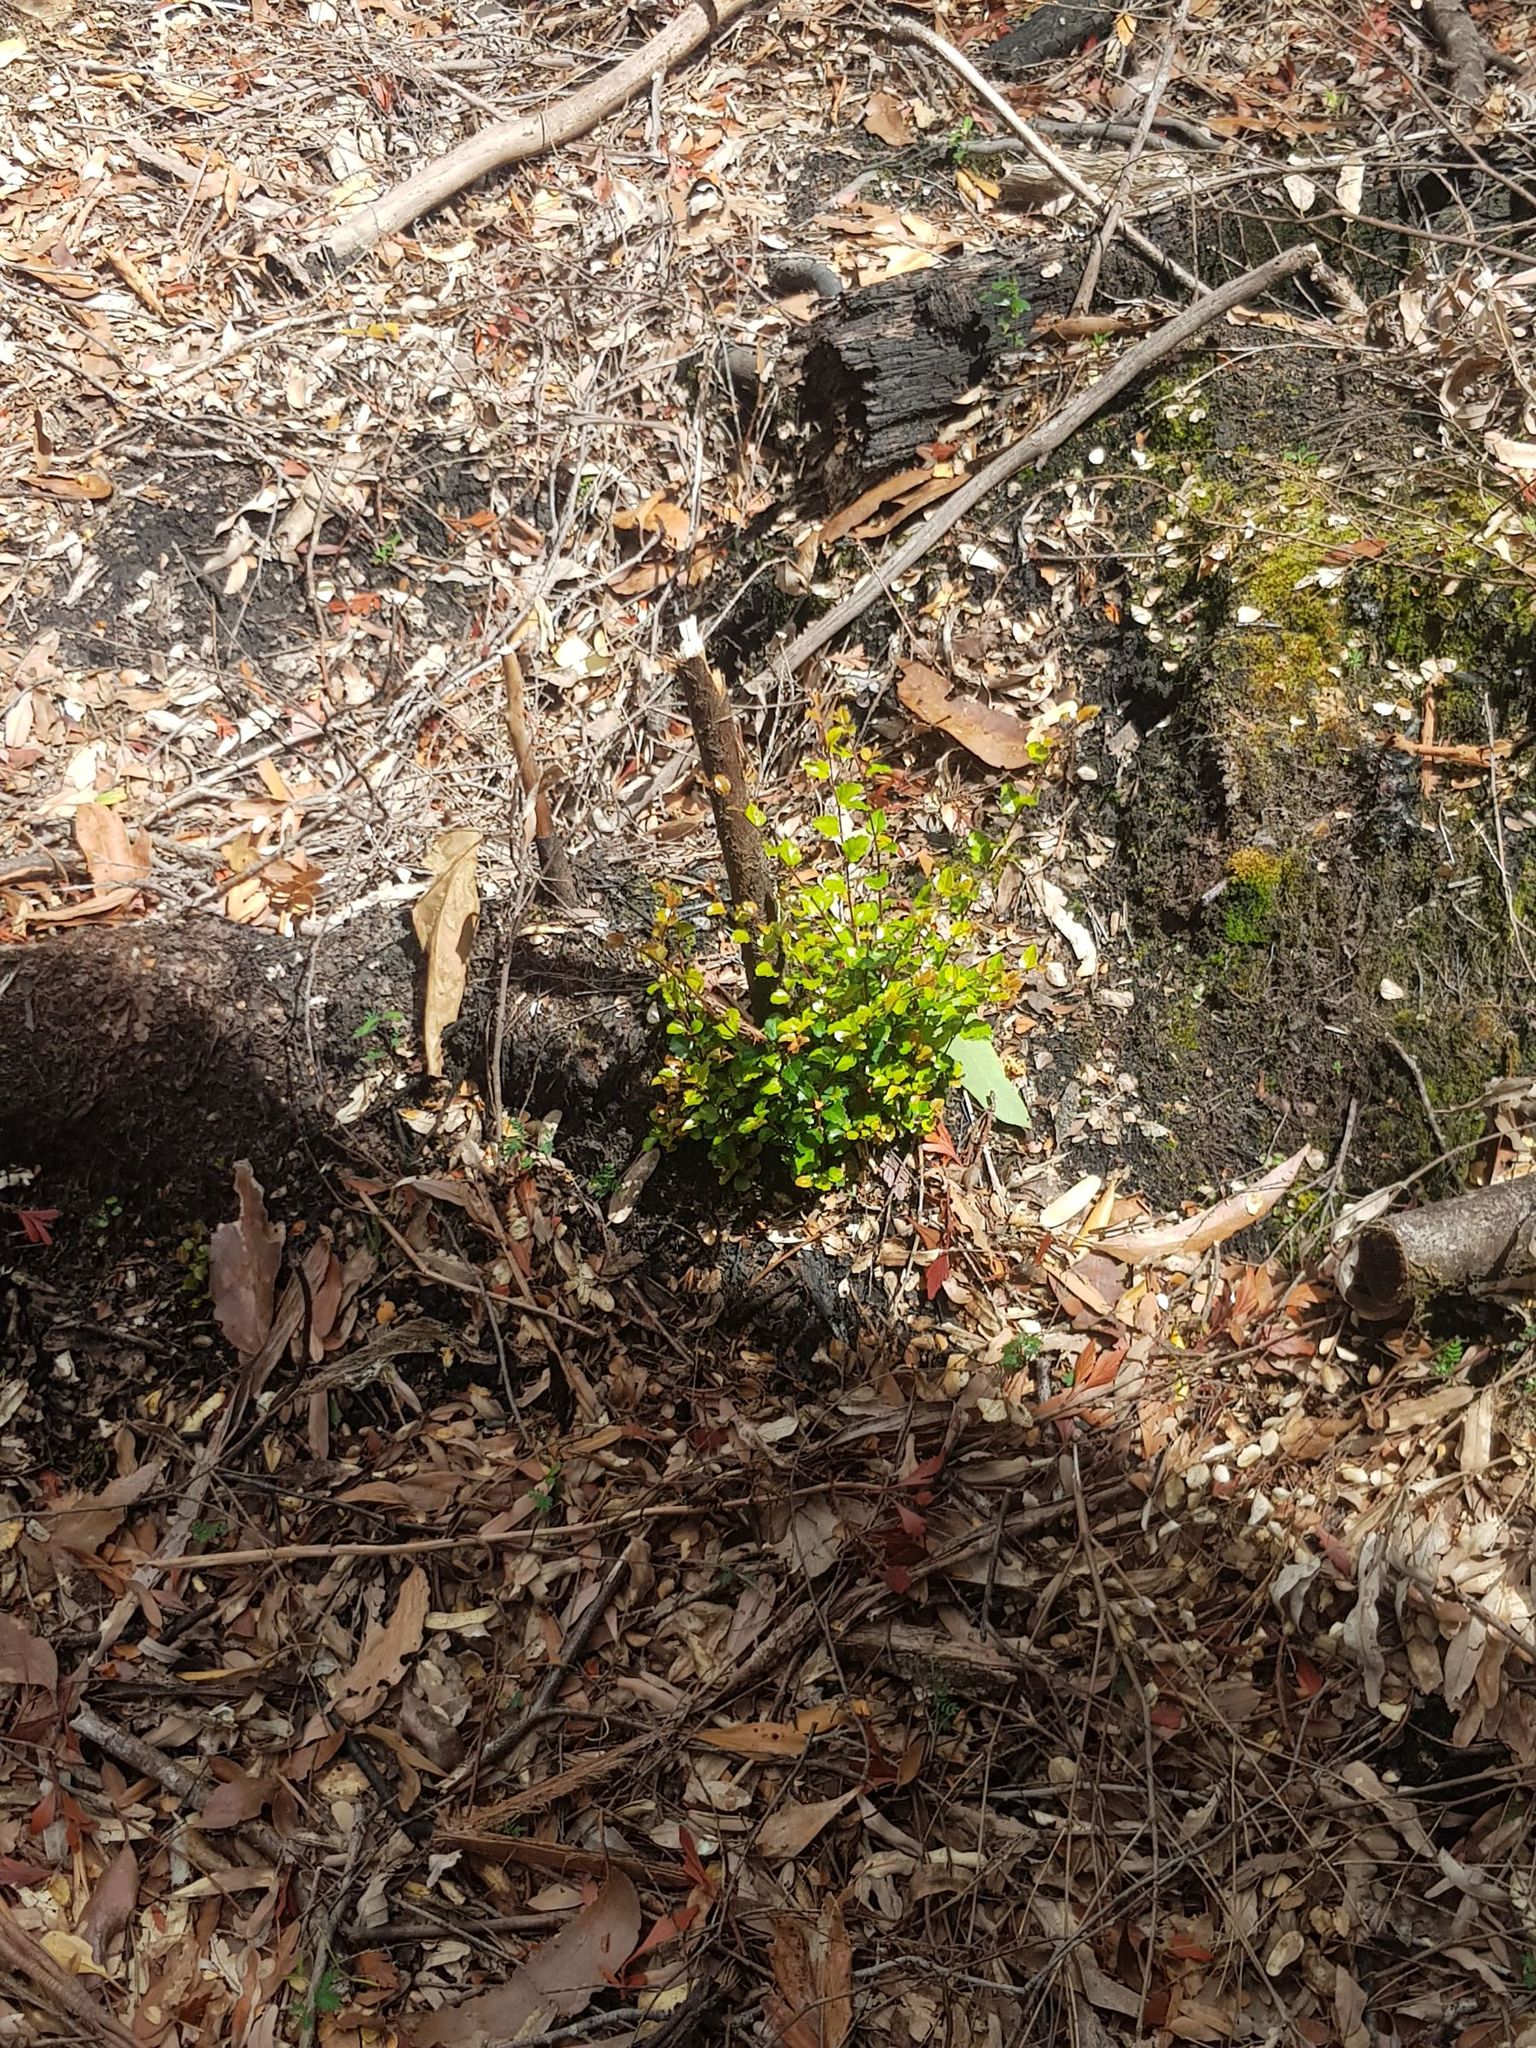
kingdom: Plantae
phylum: Tracheophyta
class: Magnoliopsida
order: Fagales
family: Nothofagaceae
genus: Nothofagus
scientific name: Nothofagus cunninghamii
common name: Myrtle beech
